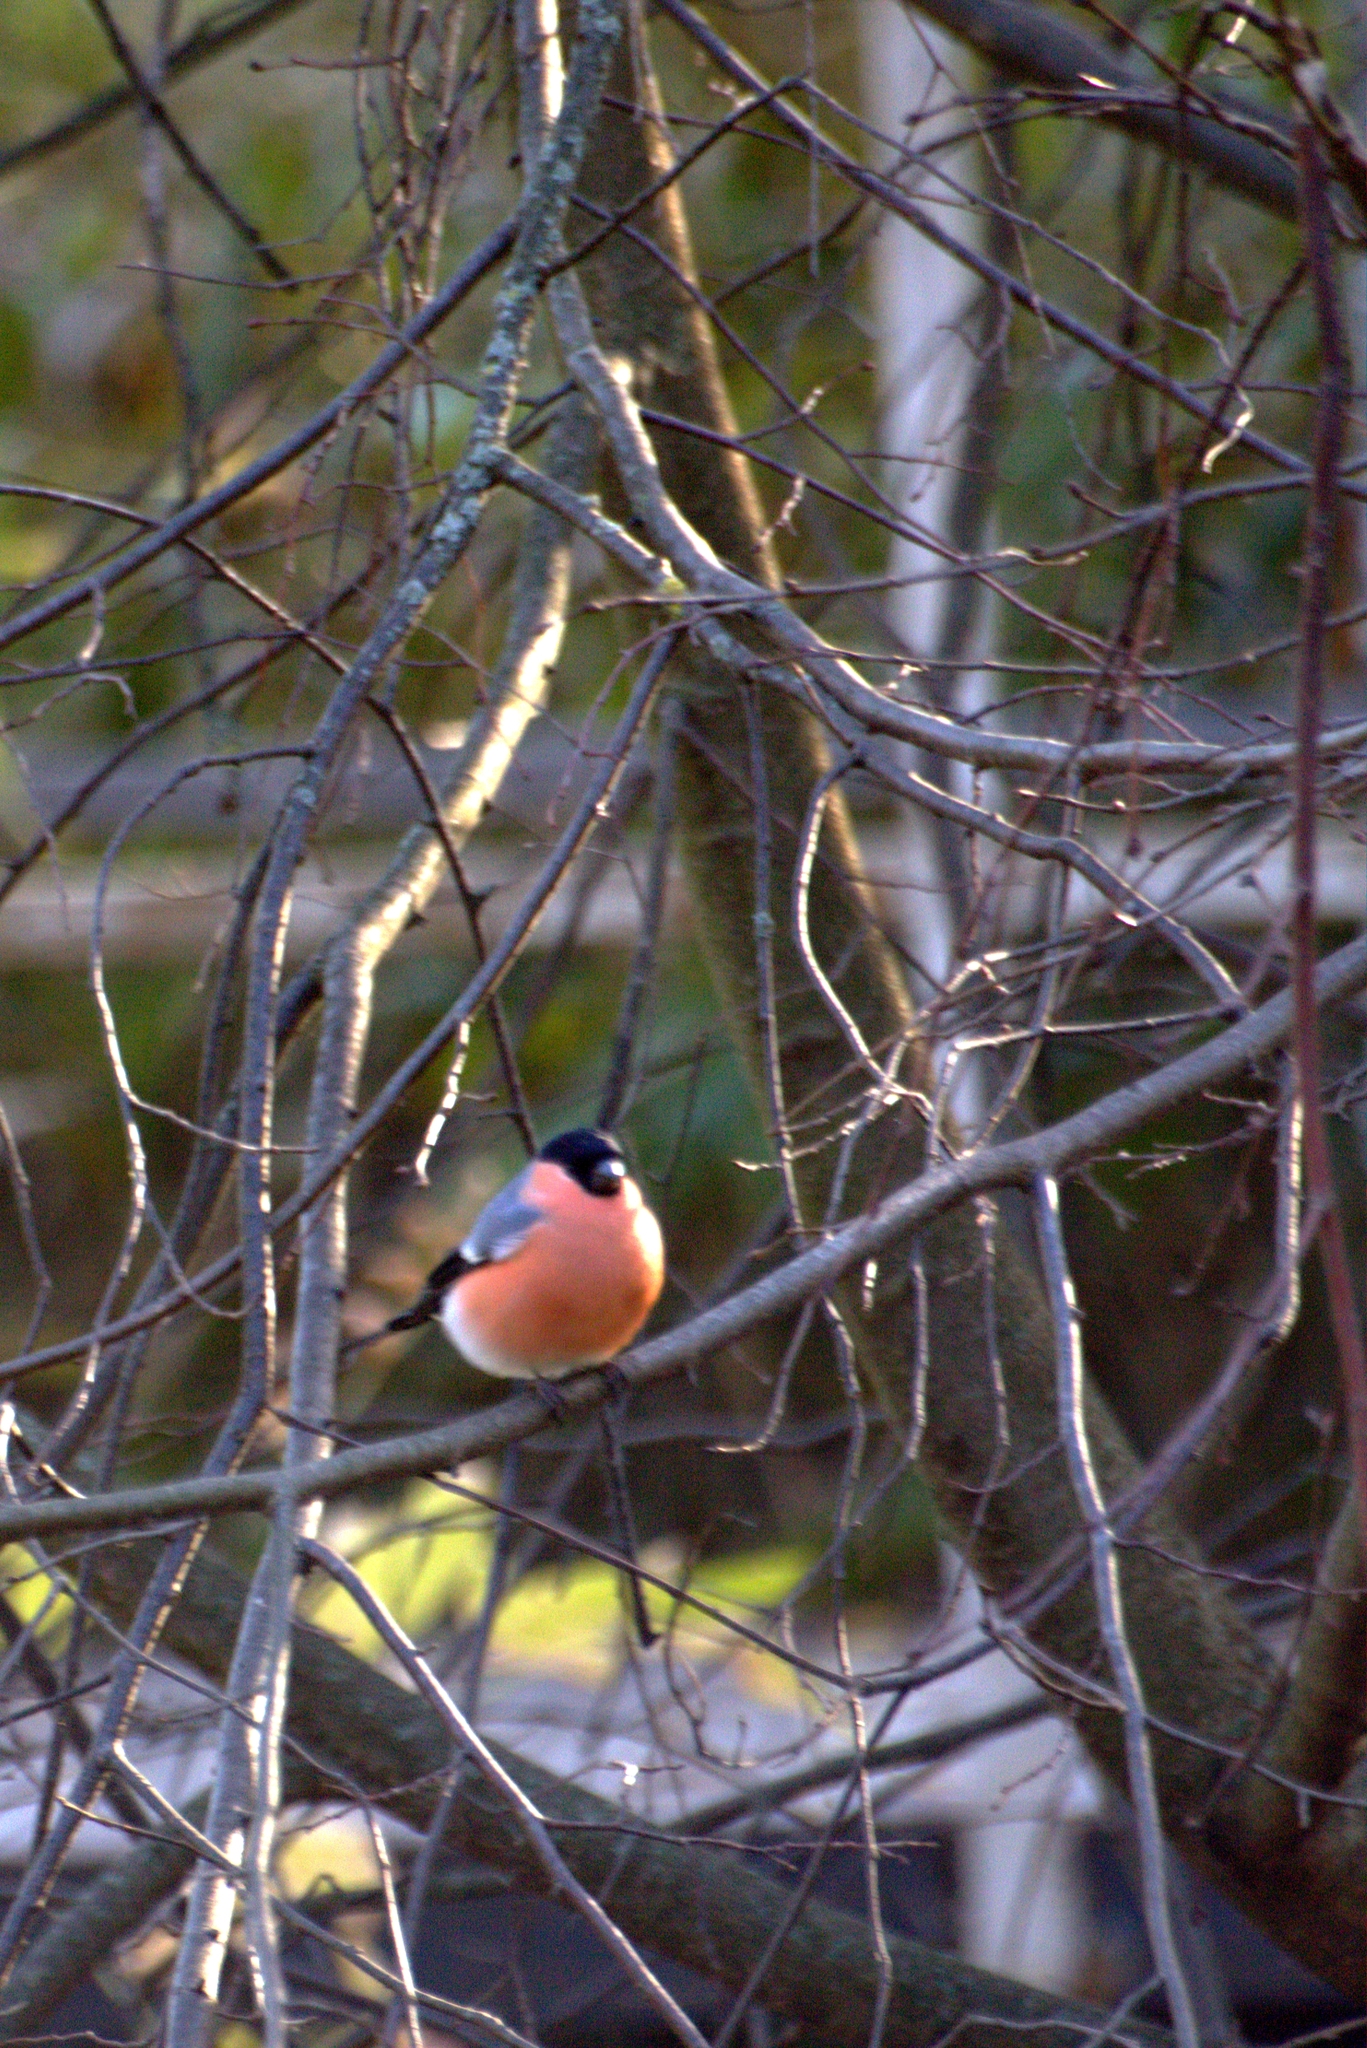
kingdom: Animalia
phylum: Chordata
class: Aves
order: Passeriformes
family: Fringillidae
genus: Pyrrhula
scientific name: Pyrrhula pyrrhula
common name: Eurasian bullfinch
